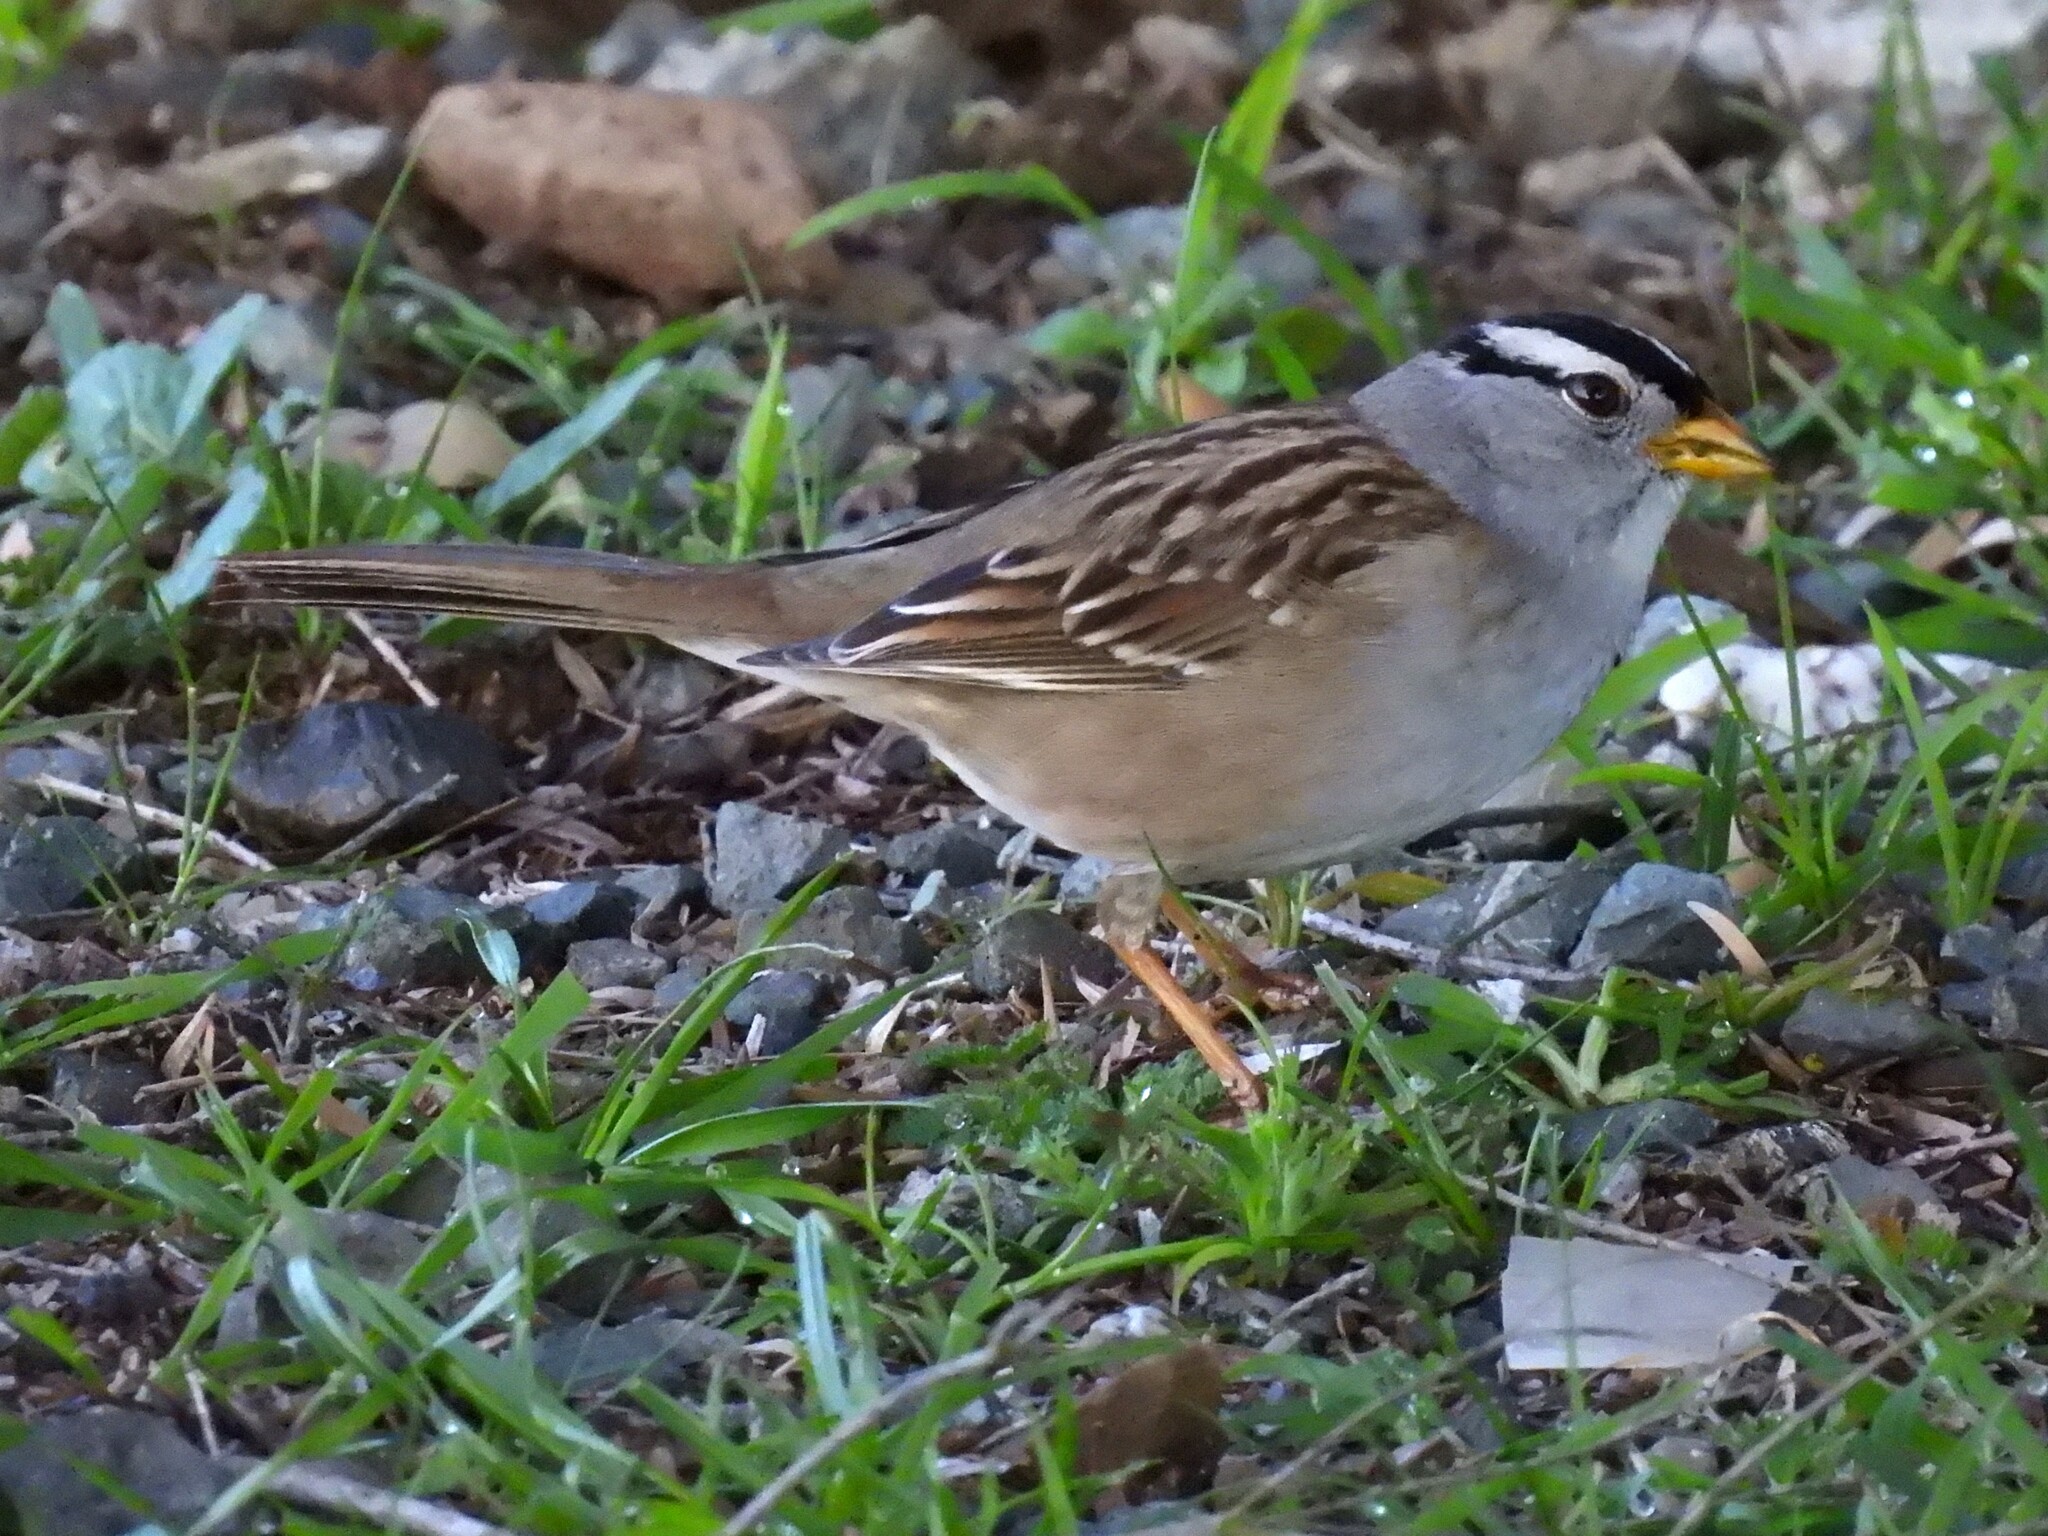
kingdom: Animalia
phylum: Chordata
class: Aves
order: Passeriformes
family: Passerellidae
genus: Zonotrichia
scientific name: Zonotrichia leucophrys
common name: White-crowned sparrow
